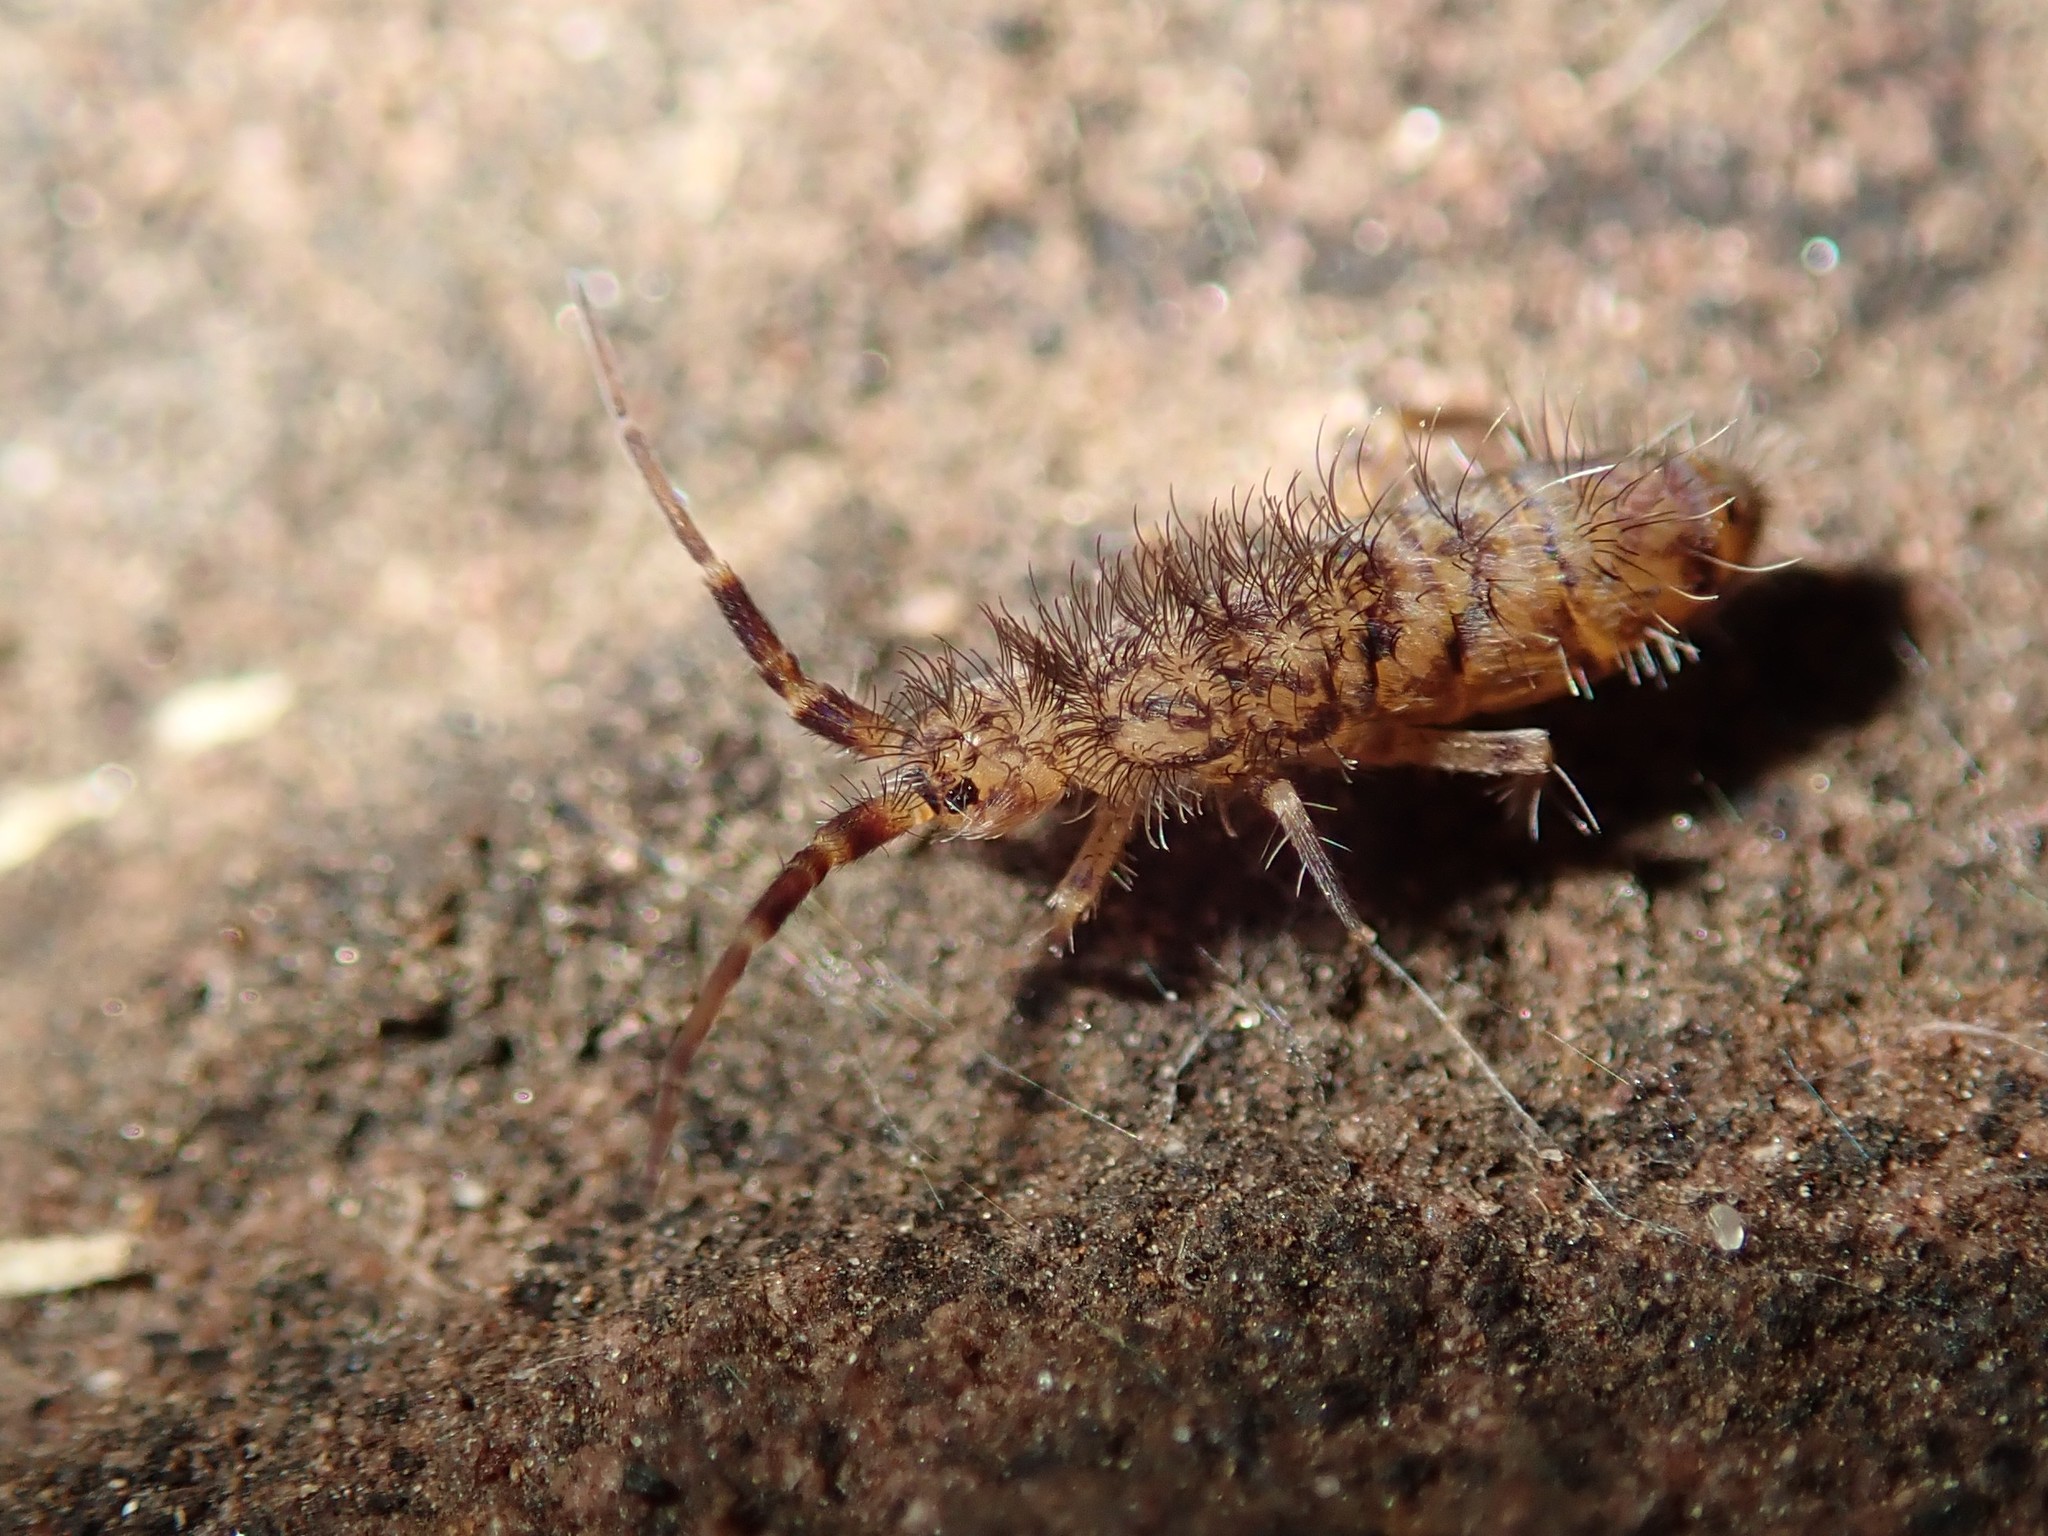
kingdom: Animalia
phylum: Arthropoda
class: Collembola
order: Entomobryomorpha
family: Orchesellidae
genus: Orchesella
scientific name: Orchesella villosa
